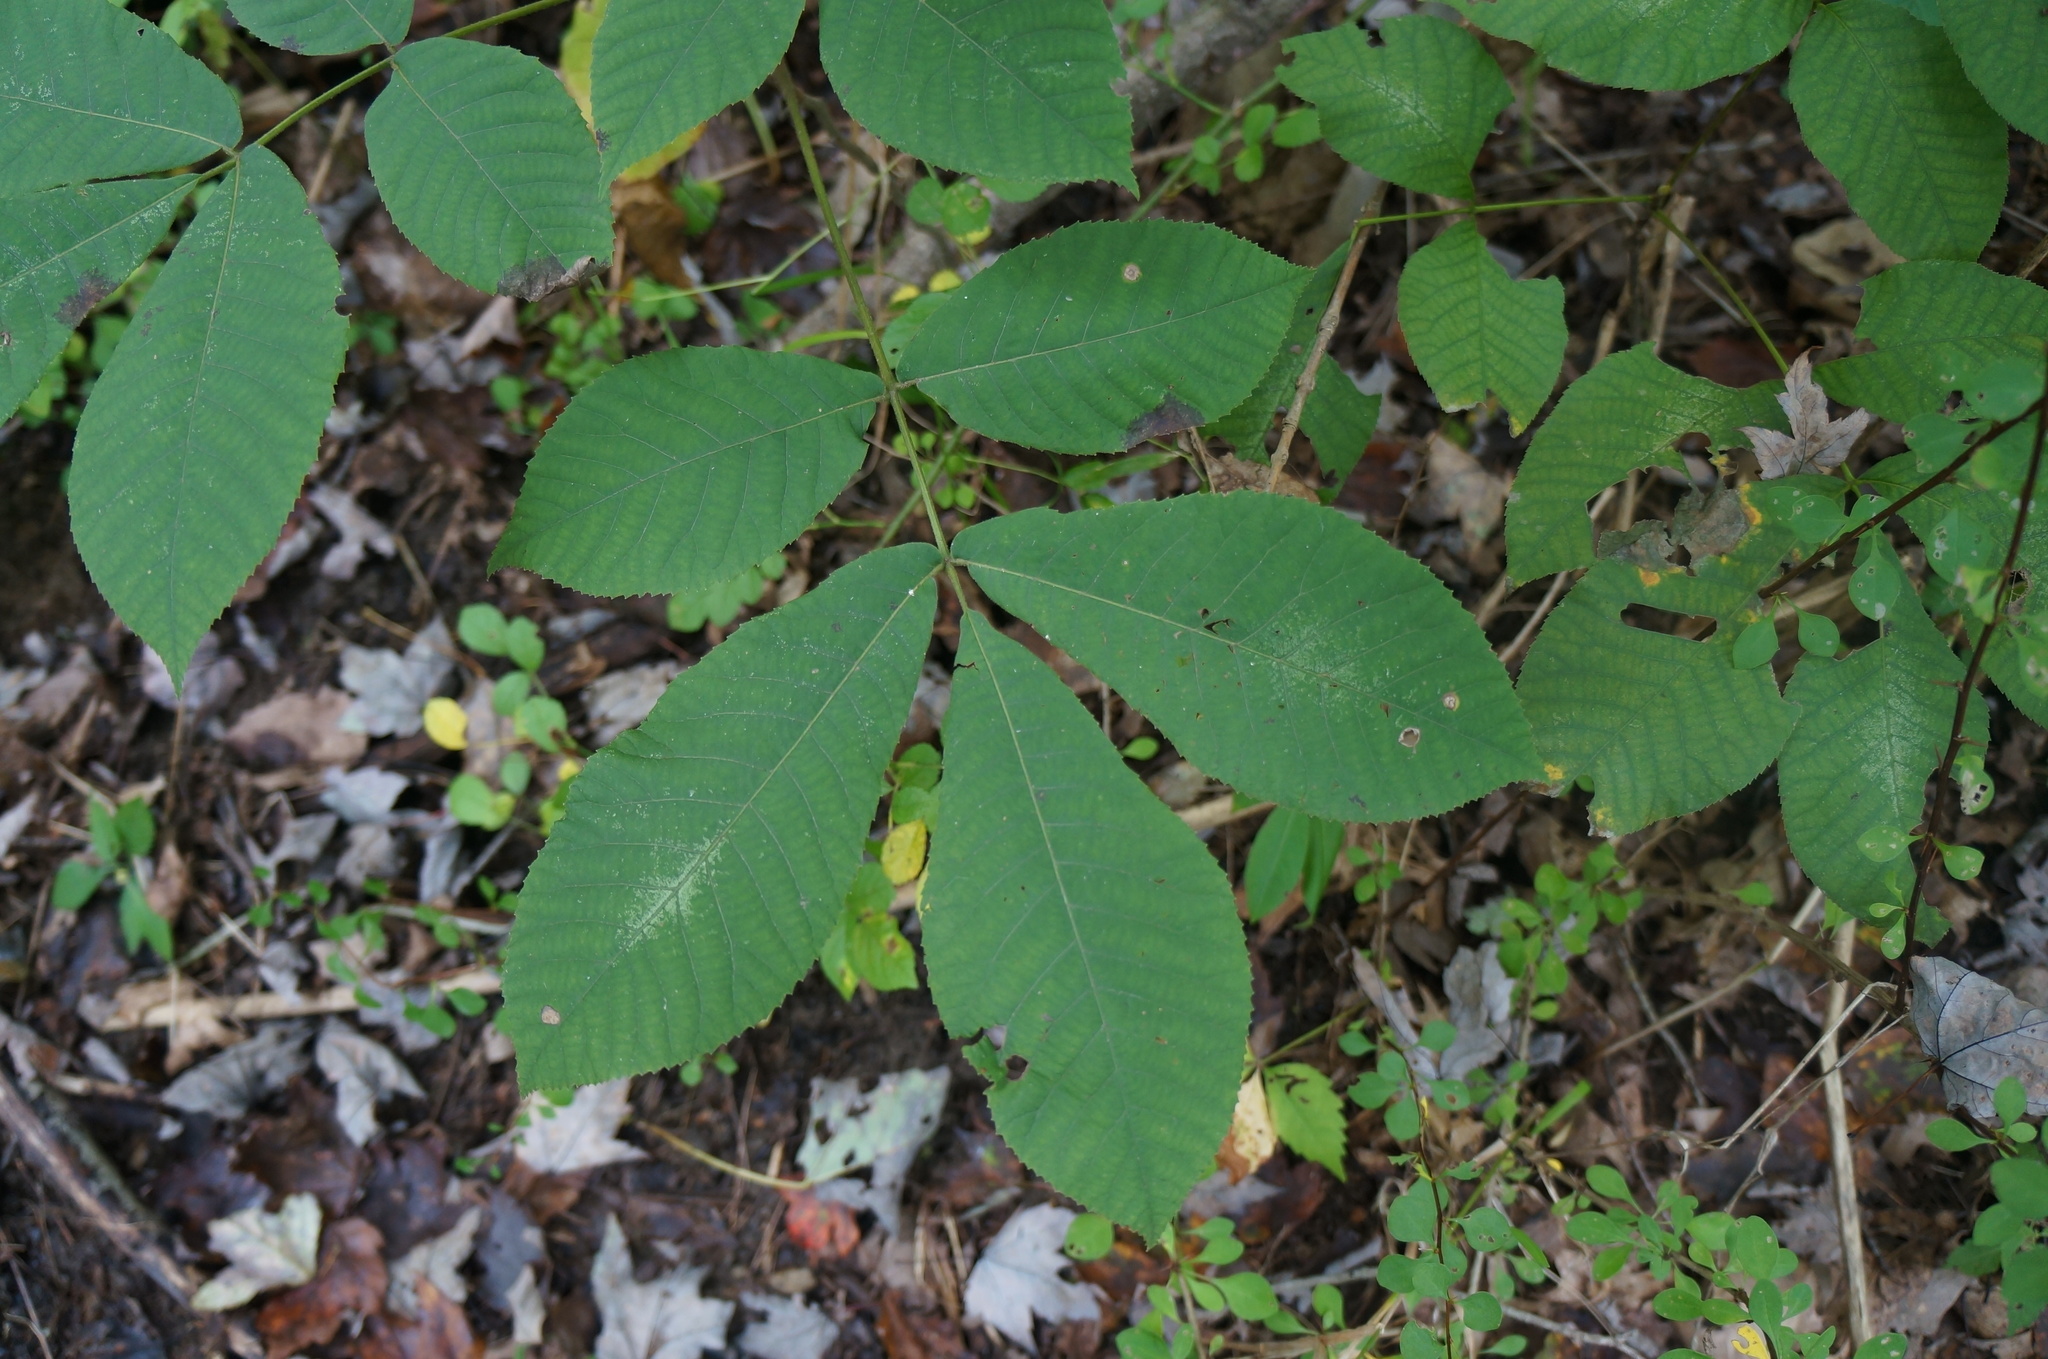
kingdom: Plantae
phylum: Tracheophyta
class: Magnoliopsida
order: Fagales
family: Juglandaceae
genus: Carya
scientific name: Carya ovata
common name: Shagbark hickory
